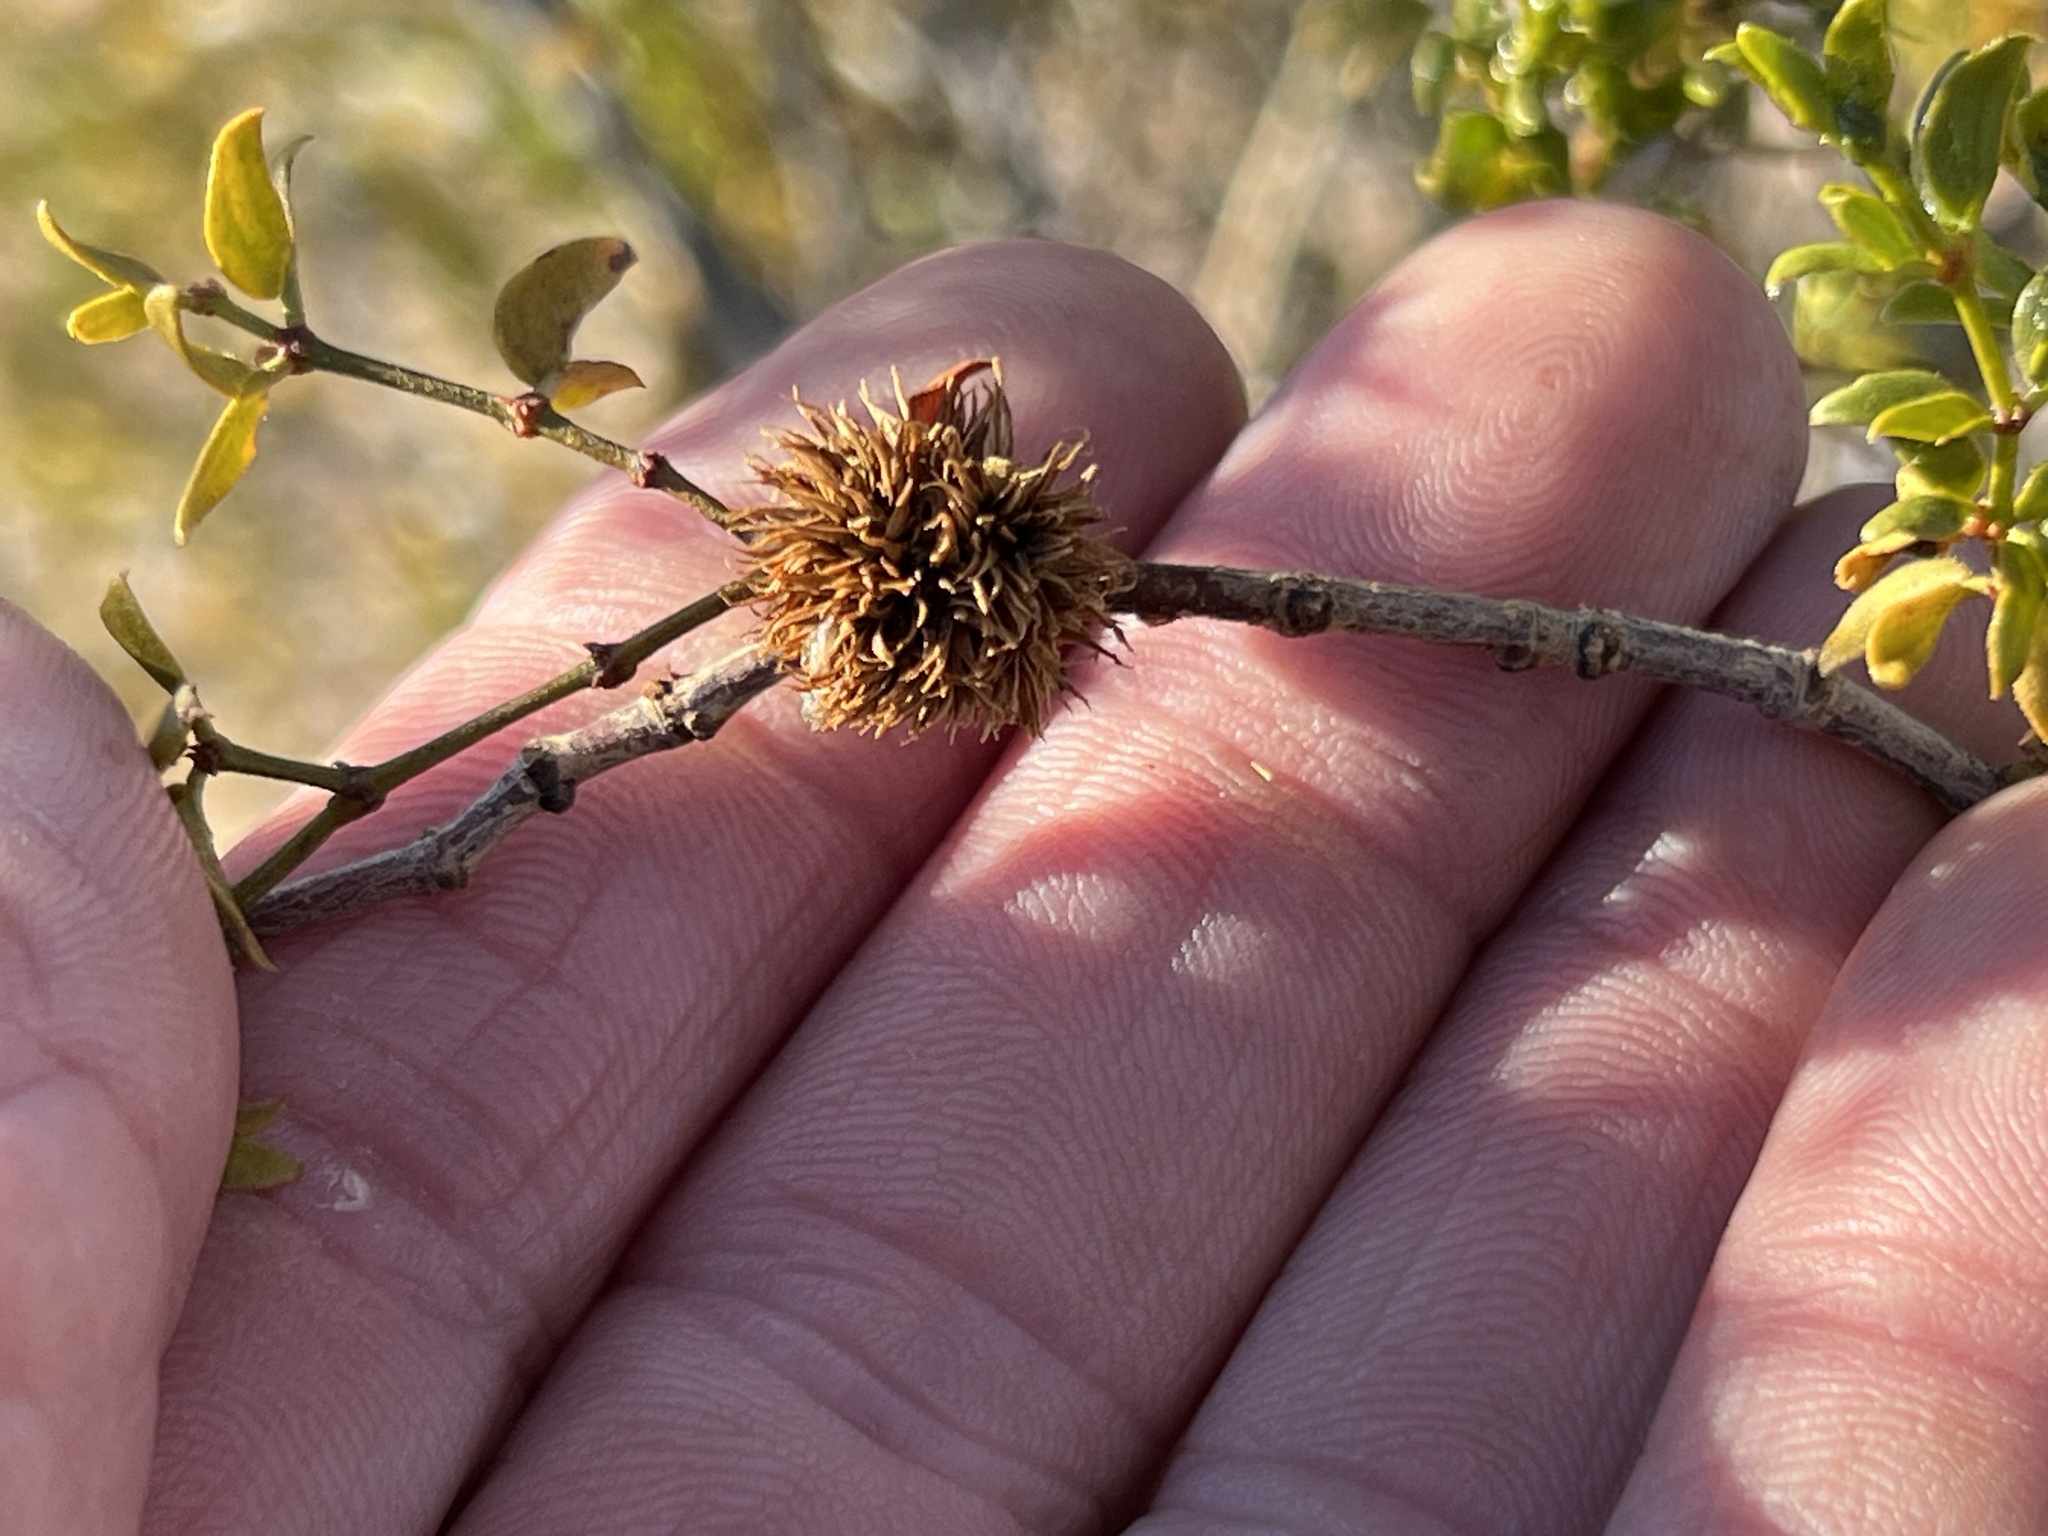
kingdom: Animalia
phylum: Arthropoda
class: Insecta
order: Diptera
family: Cecidomyiidae
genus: Asphondylia
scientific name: Asphondylia auripila
